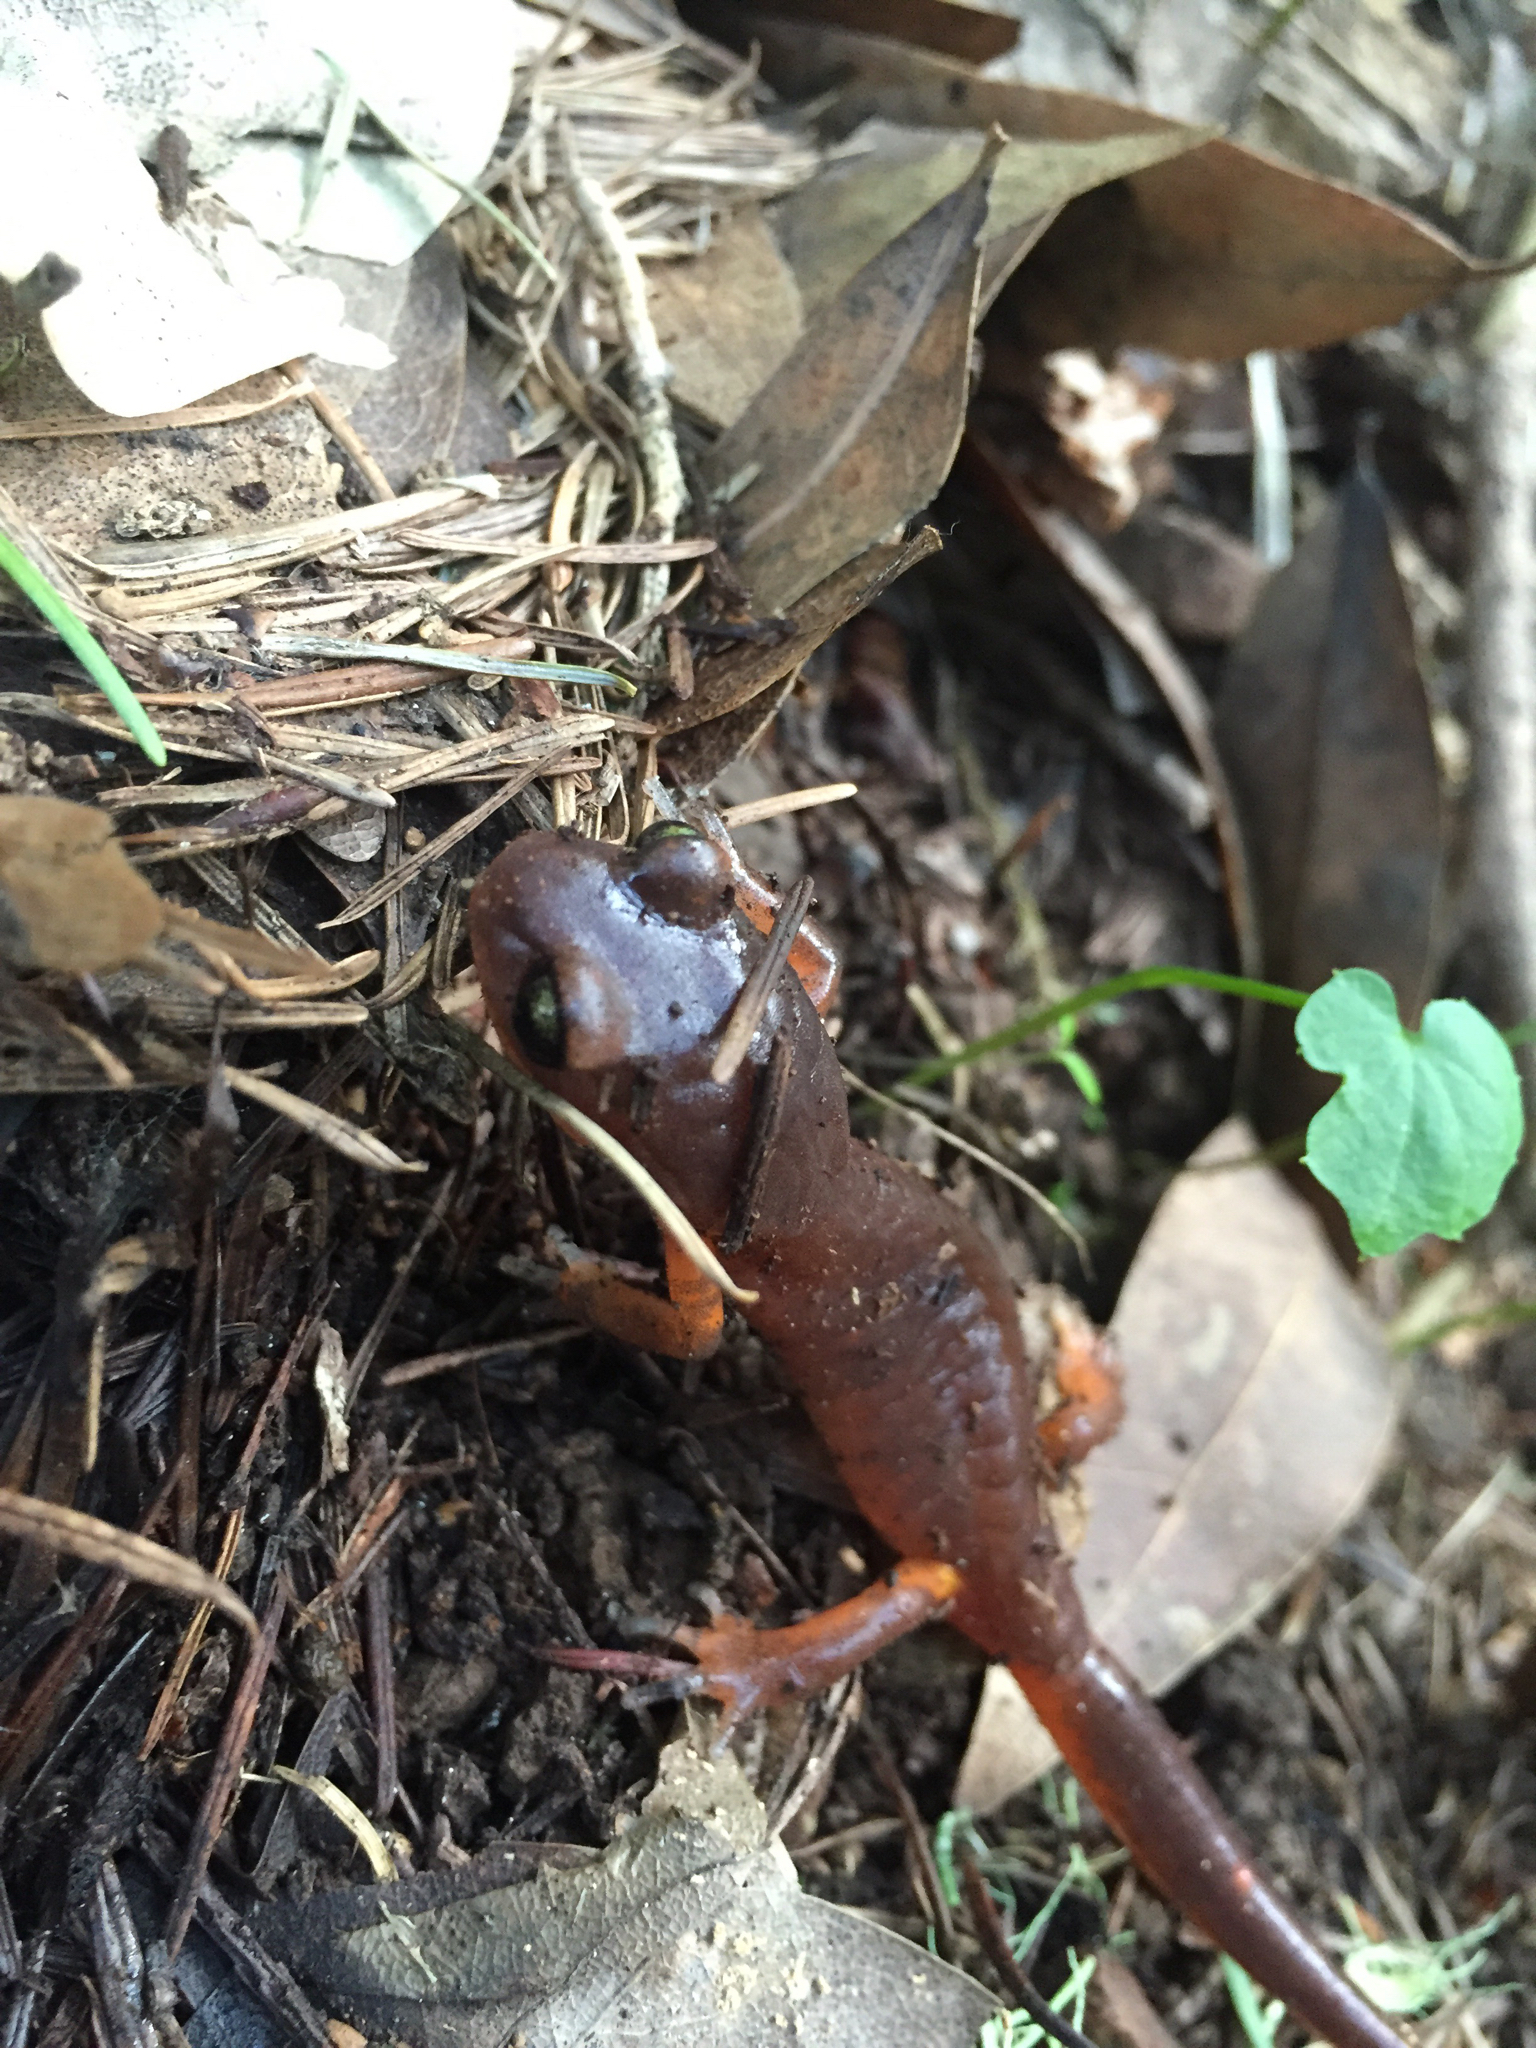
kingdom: Animalia
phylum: Chordata
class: Amphibia
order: Caudata
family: Plethodontidae
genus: Ensatina
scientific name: Ensatina eschscholtzii
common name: Ensatina
